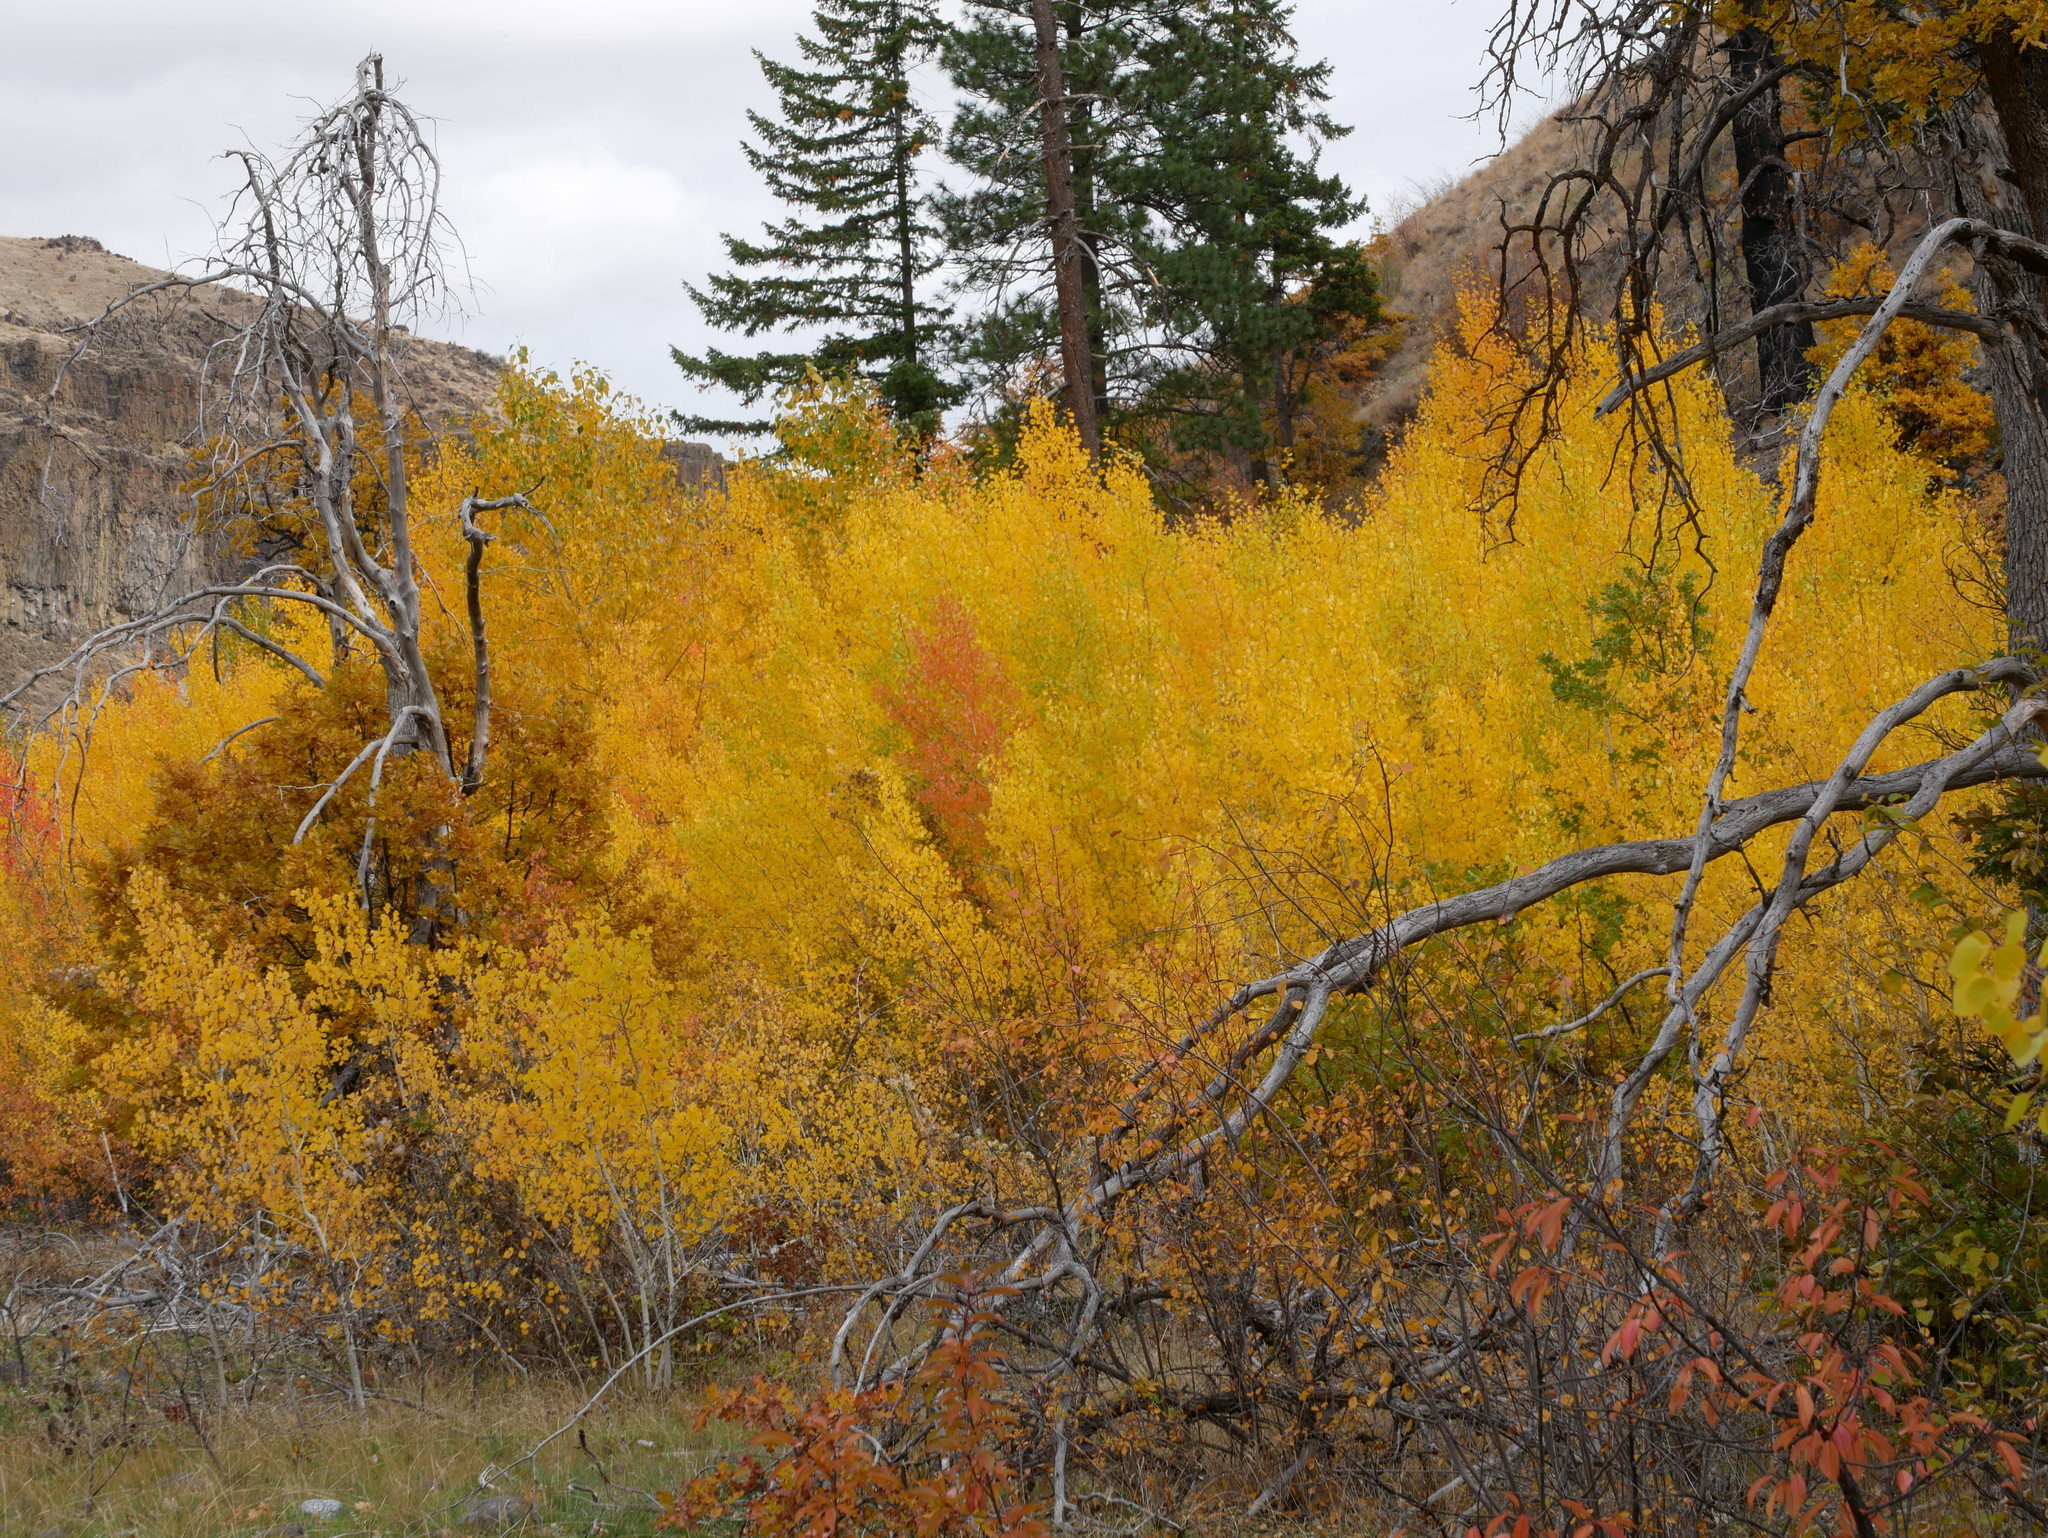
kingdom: Plantae
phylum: Tracheophyta
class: Magnoliopsida
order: Malpighiales
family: Salicaceae
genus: Populus
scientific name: Populus tremuloides
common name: Quaking aspen
